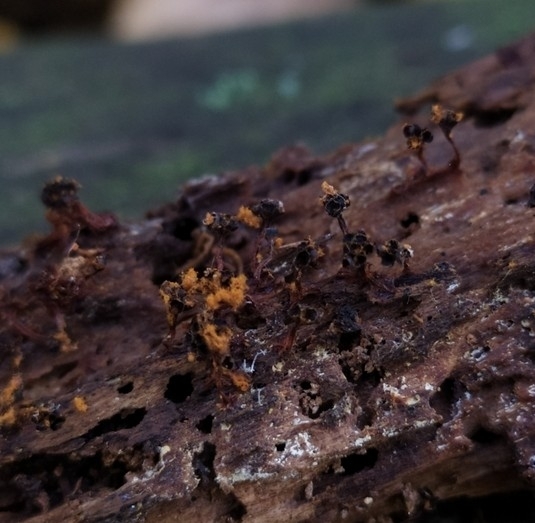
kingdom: Protozoa
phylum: Mycetozoa
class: Myxomycetes
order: Trichiales
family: Trichiaceae
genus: Metatrichia
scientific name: Metatrichia floriformis
